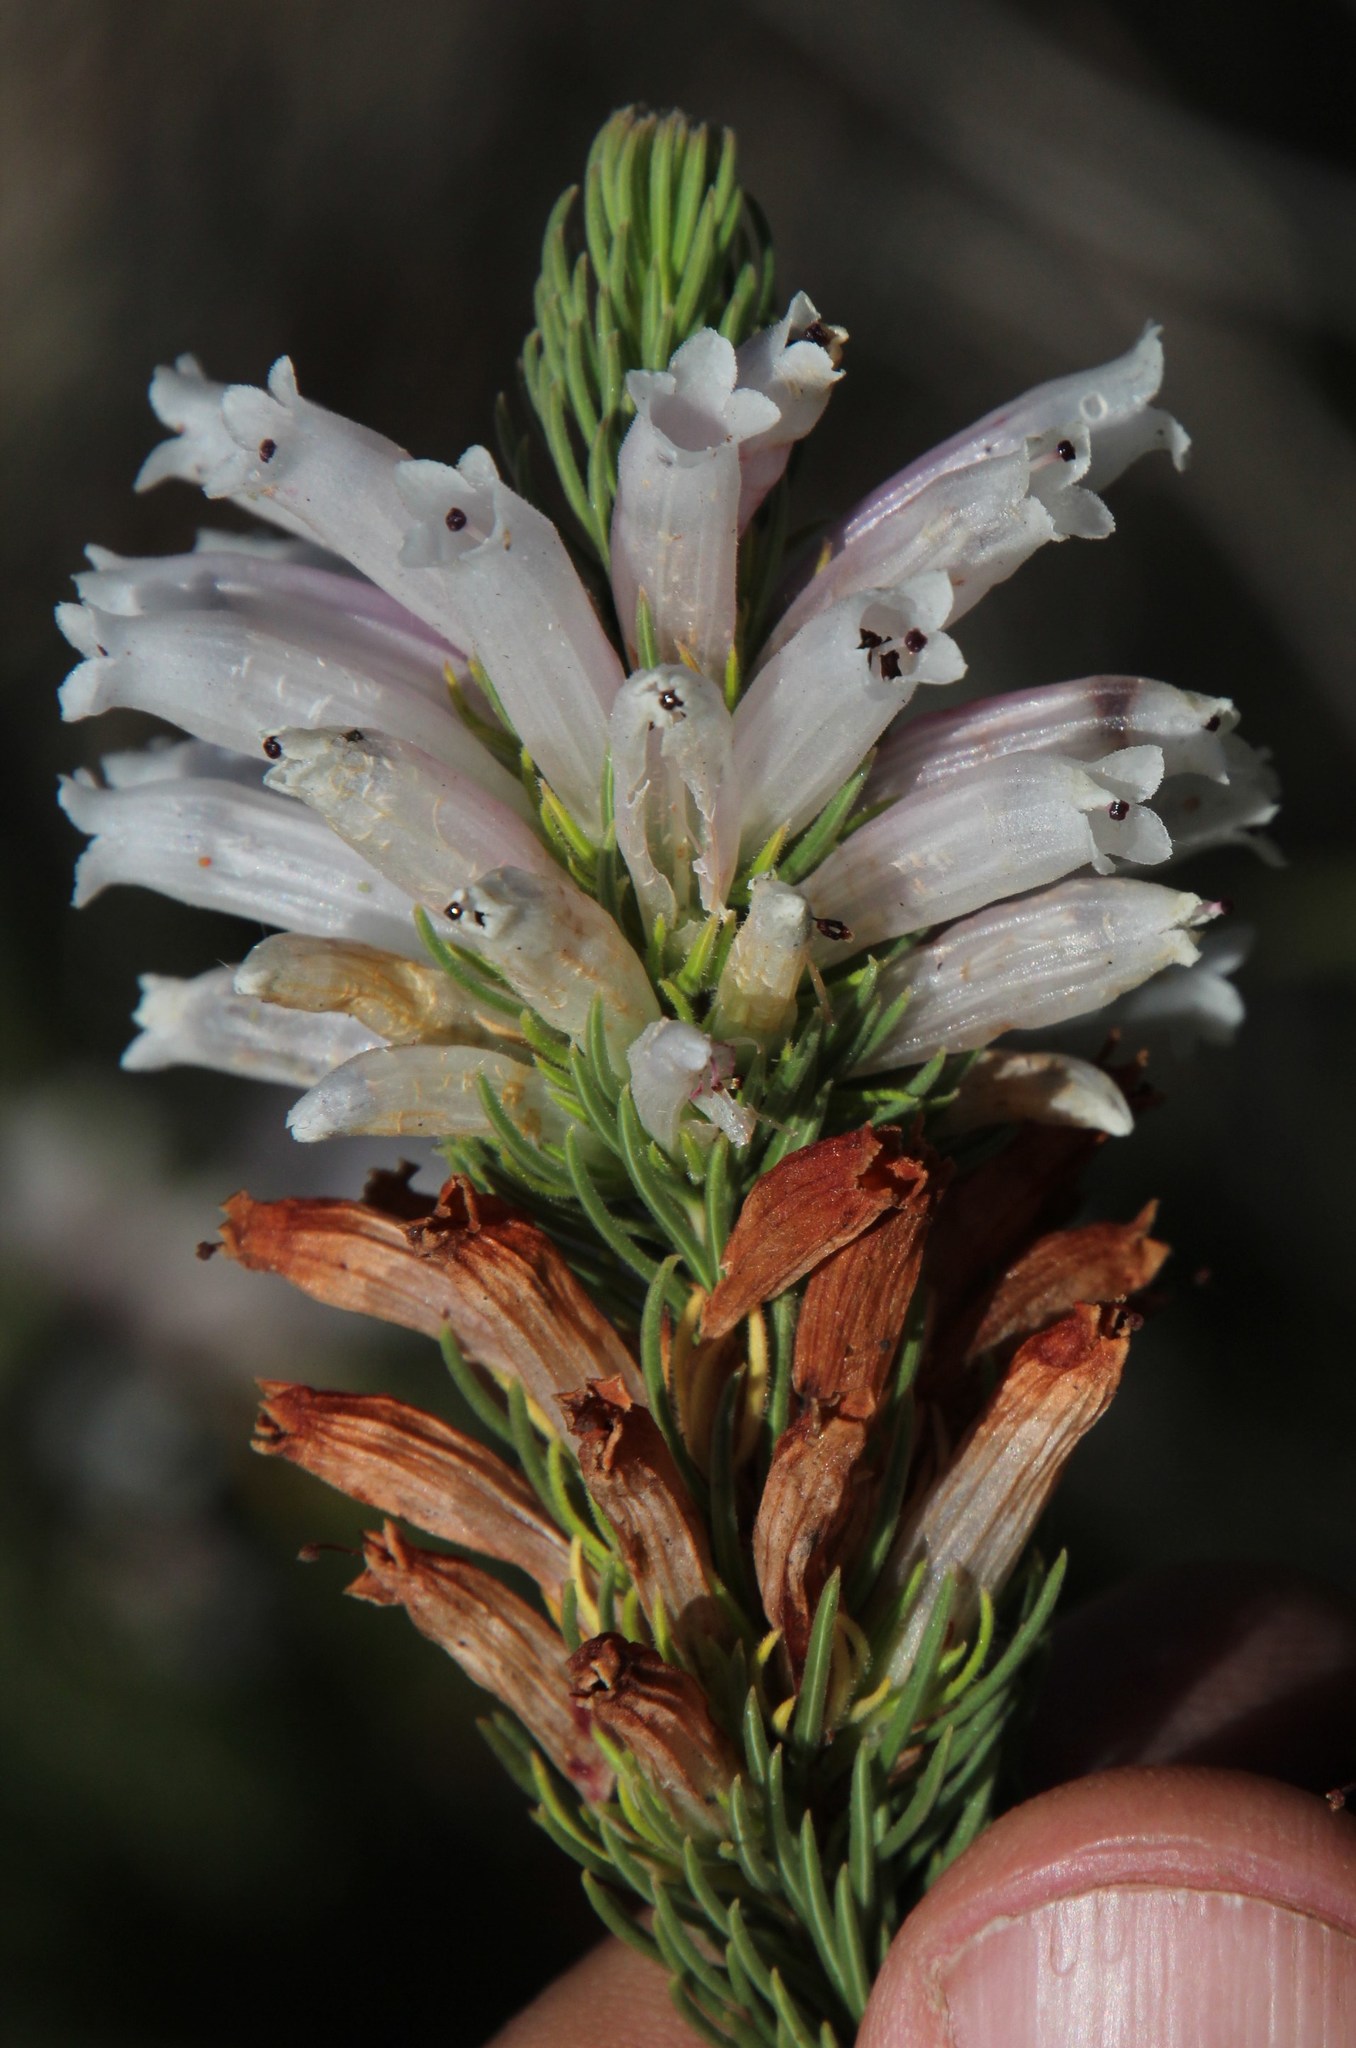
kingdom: Plantae
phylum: Tracheophyta
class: Magnoliopsida
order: Ericales
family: Ericaceae
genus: Erica
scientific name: Erica viscaria
